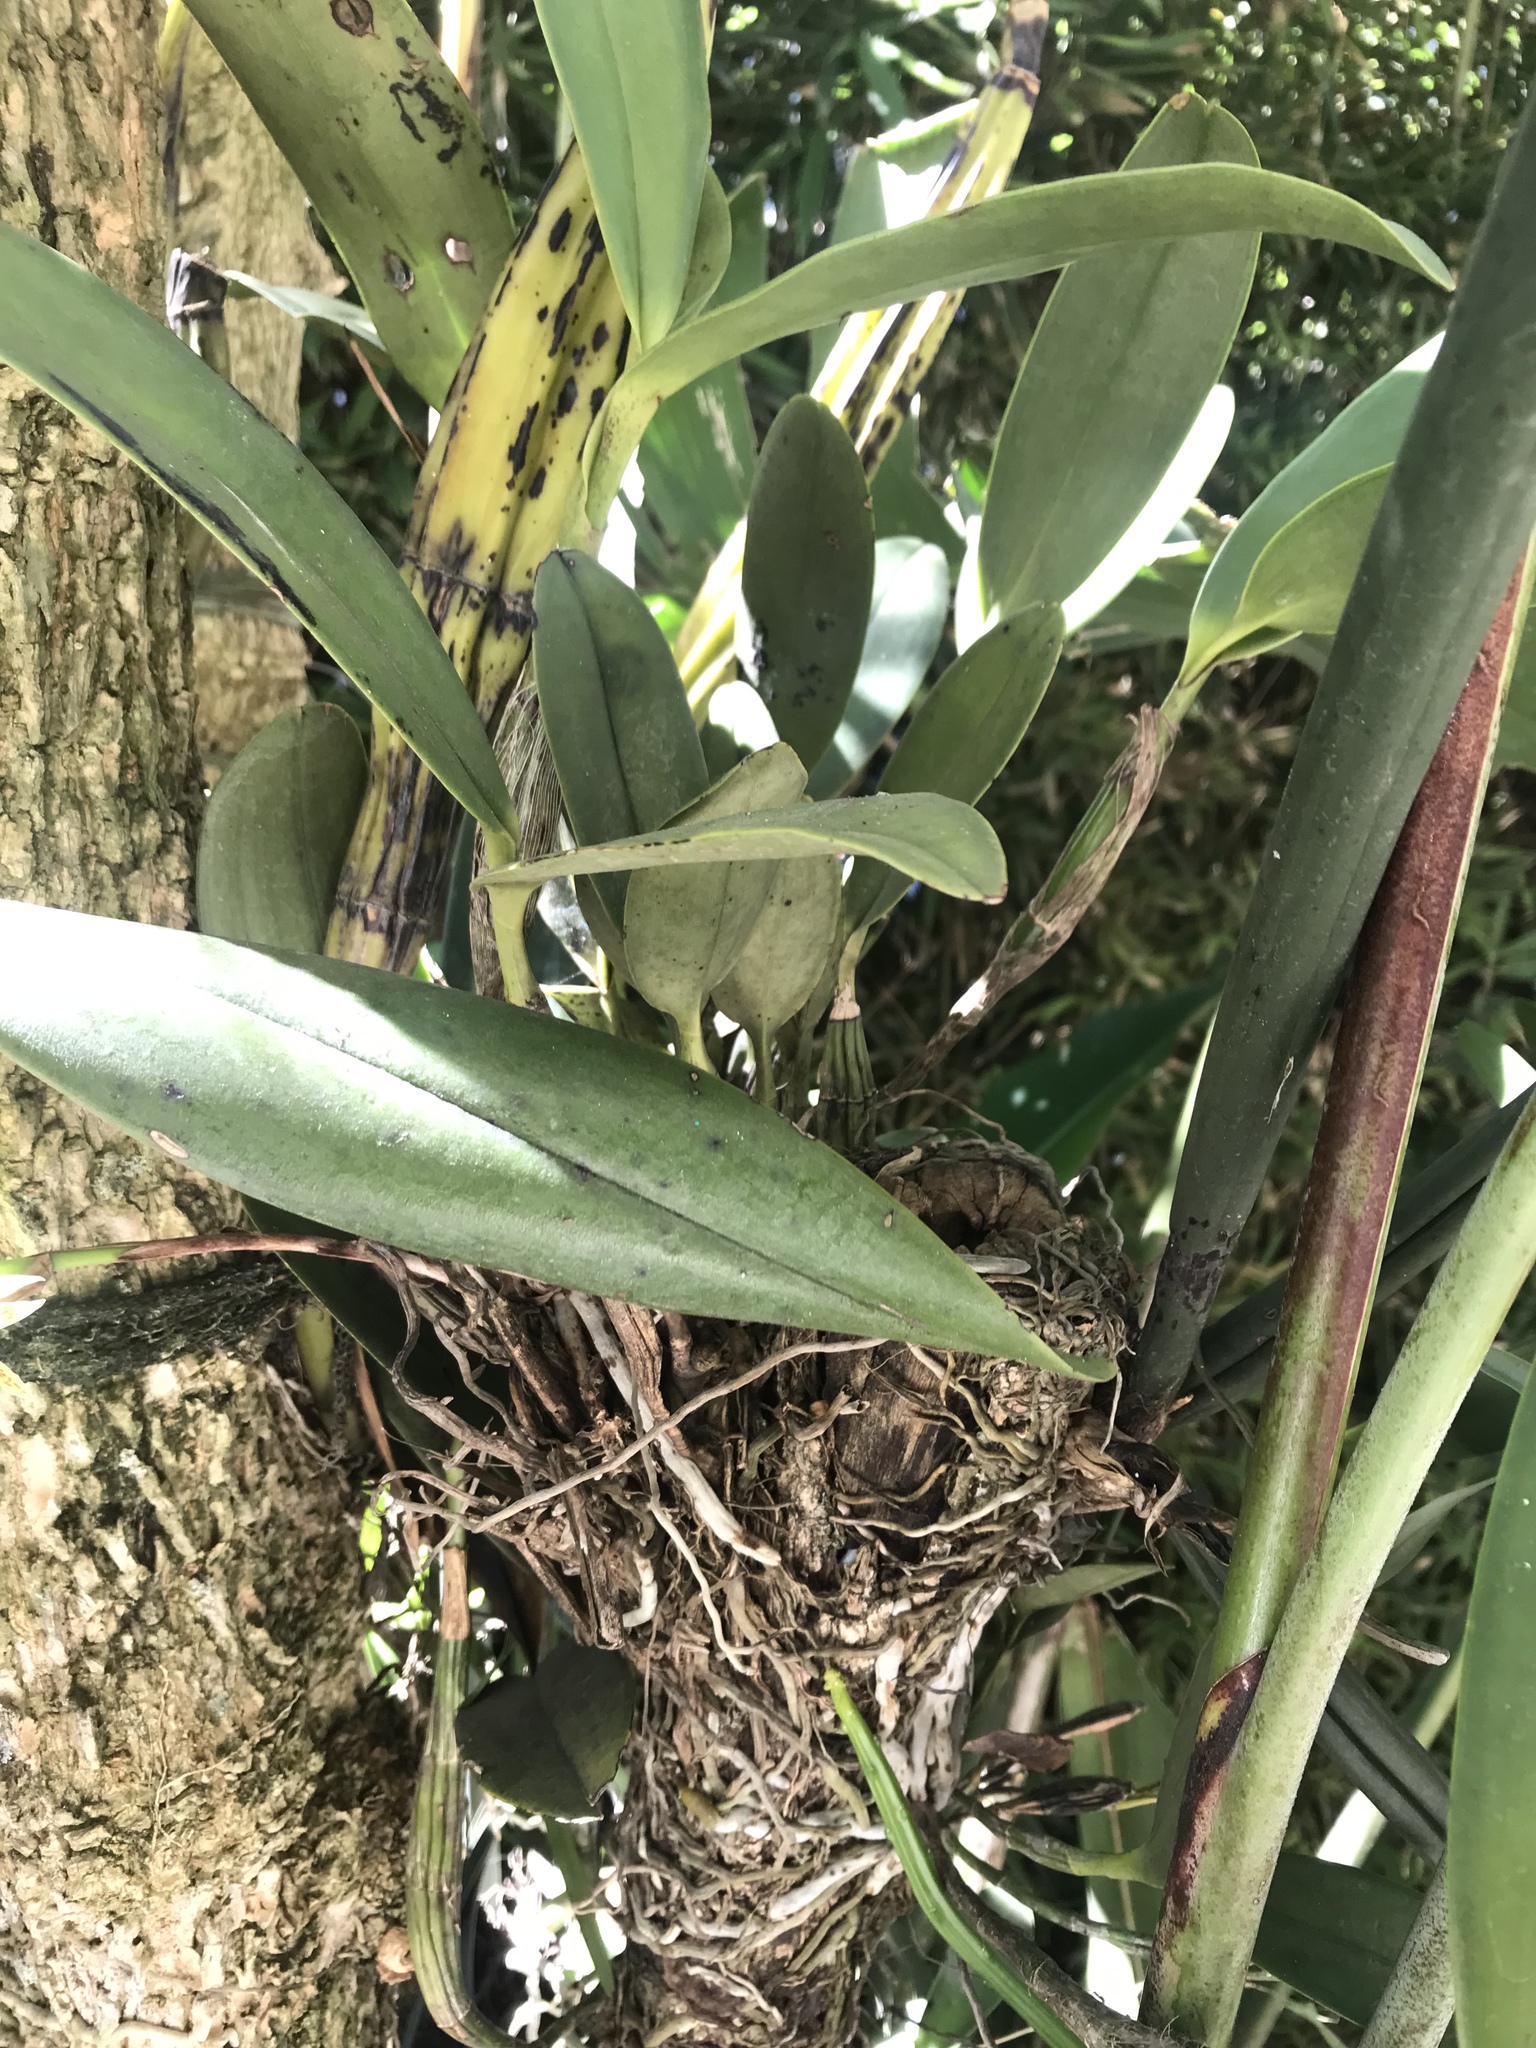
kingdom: Plantae
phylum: Tracheophyta
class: Liliopsida
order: Asparagales
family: Orchidaceae
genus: Epidendrum
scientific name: Epidendrum stamfordianum
